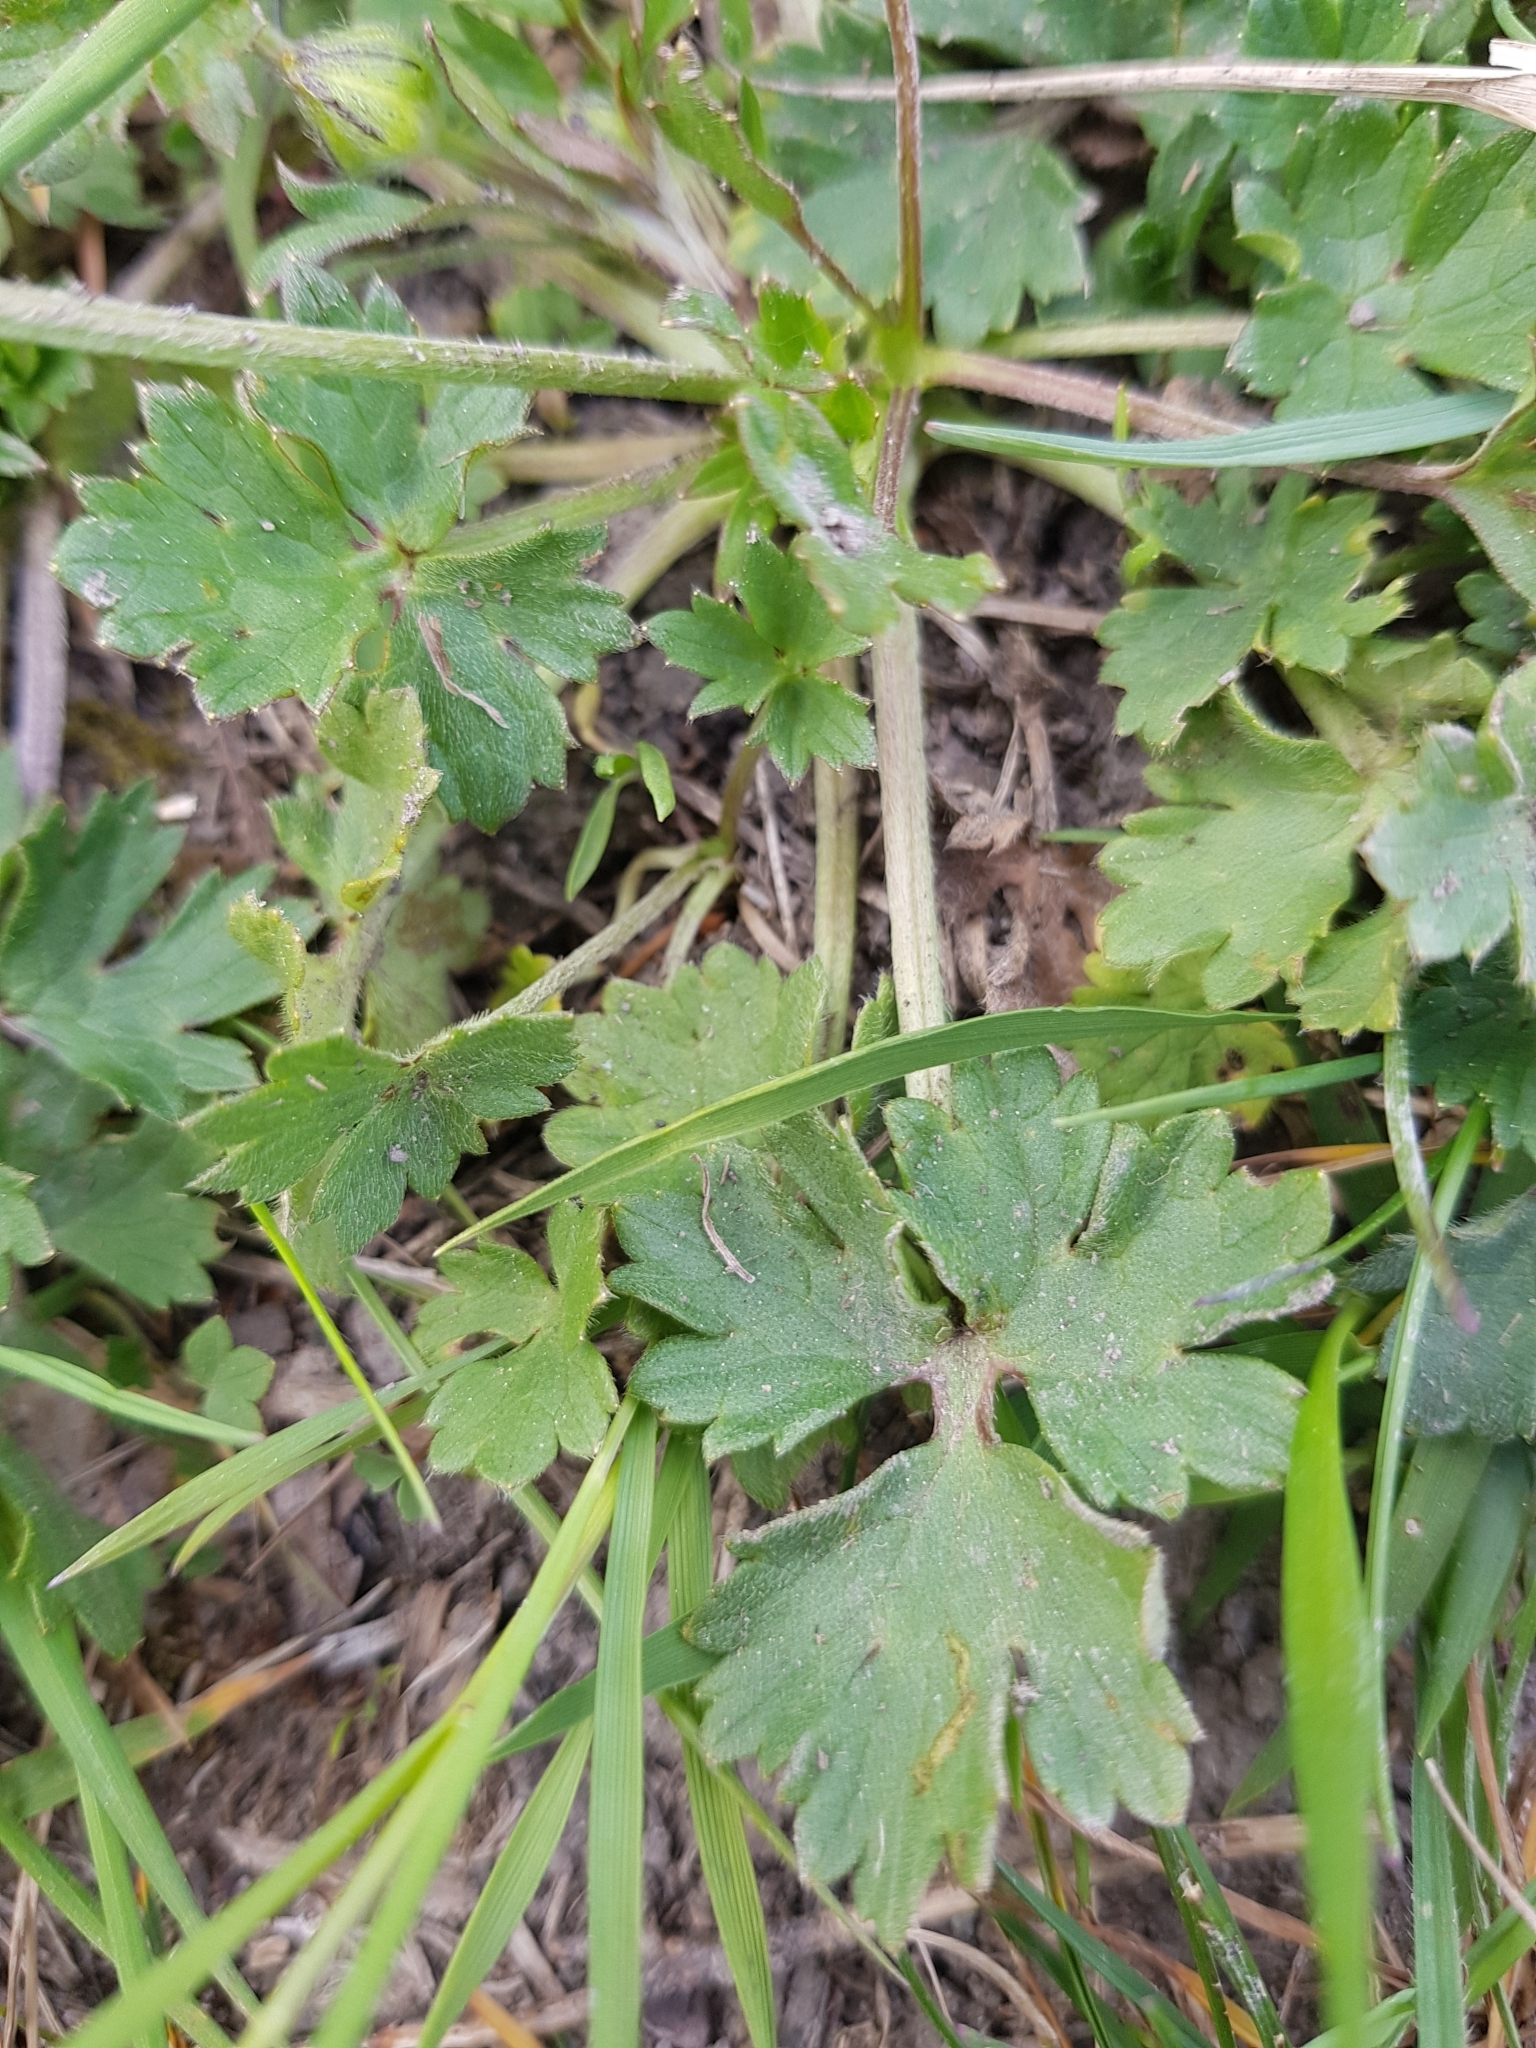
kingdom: Plantae
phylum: Tracheophyta
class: Magnoliopsida
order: Ranunculales
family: Ranunculaceae
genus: Ranunculus
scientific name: Ranunculus bulbosus
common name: Bulbous buttercup
